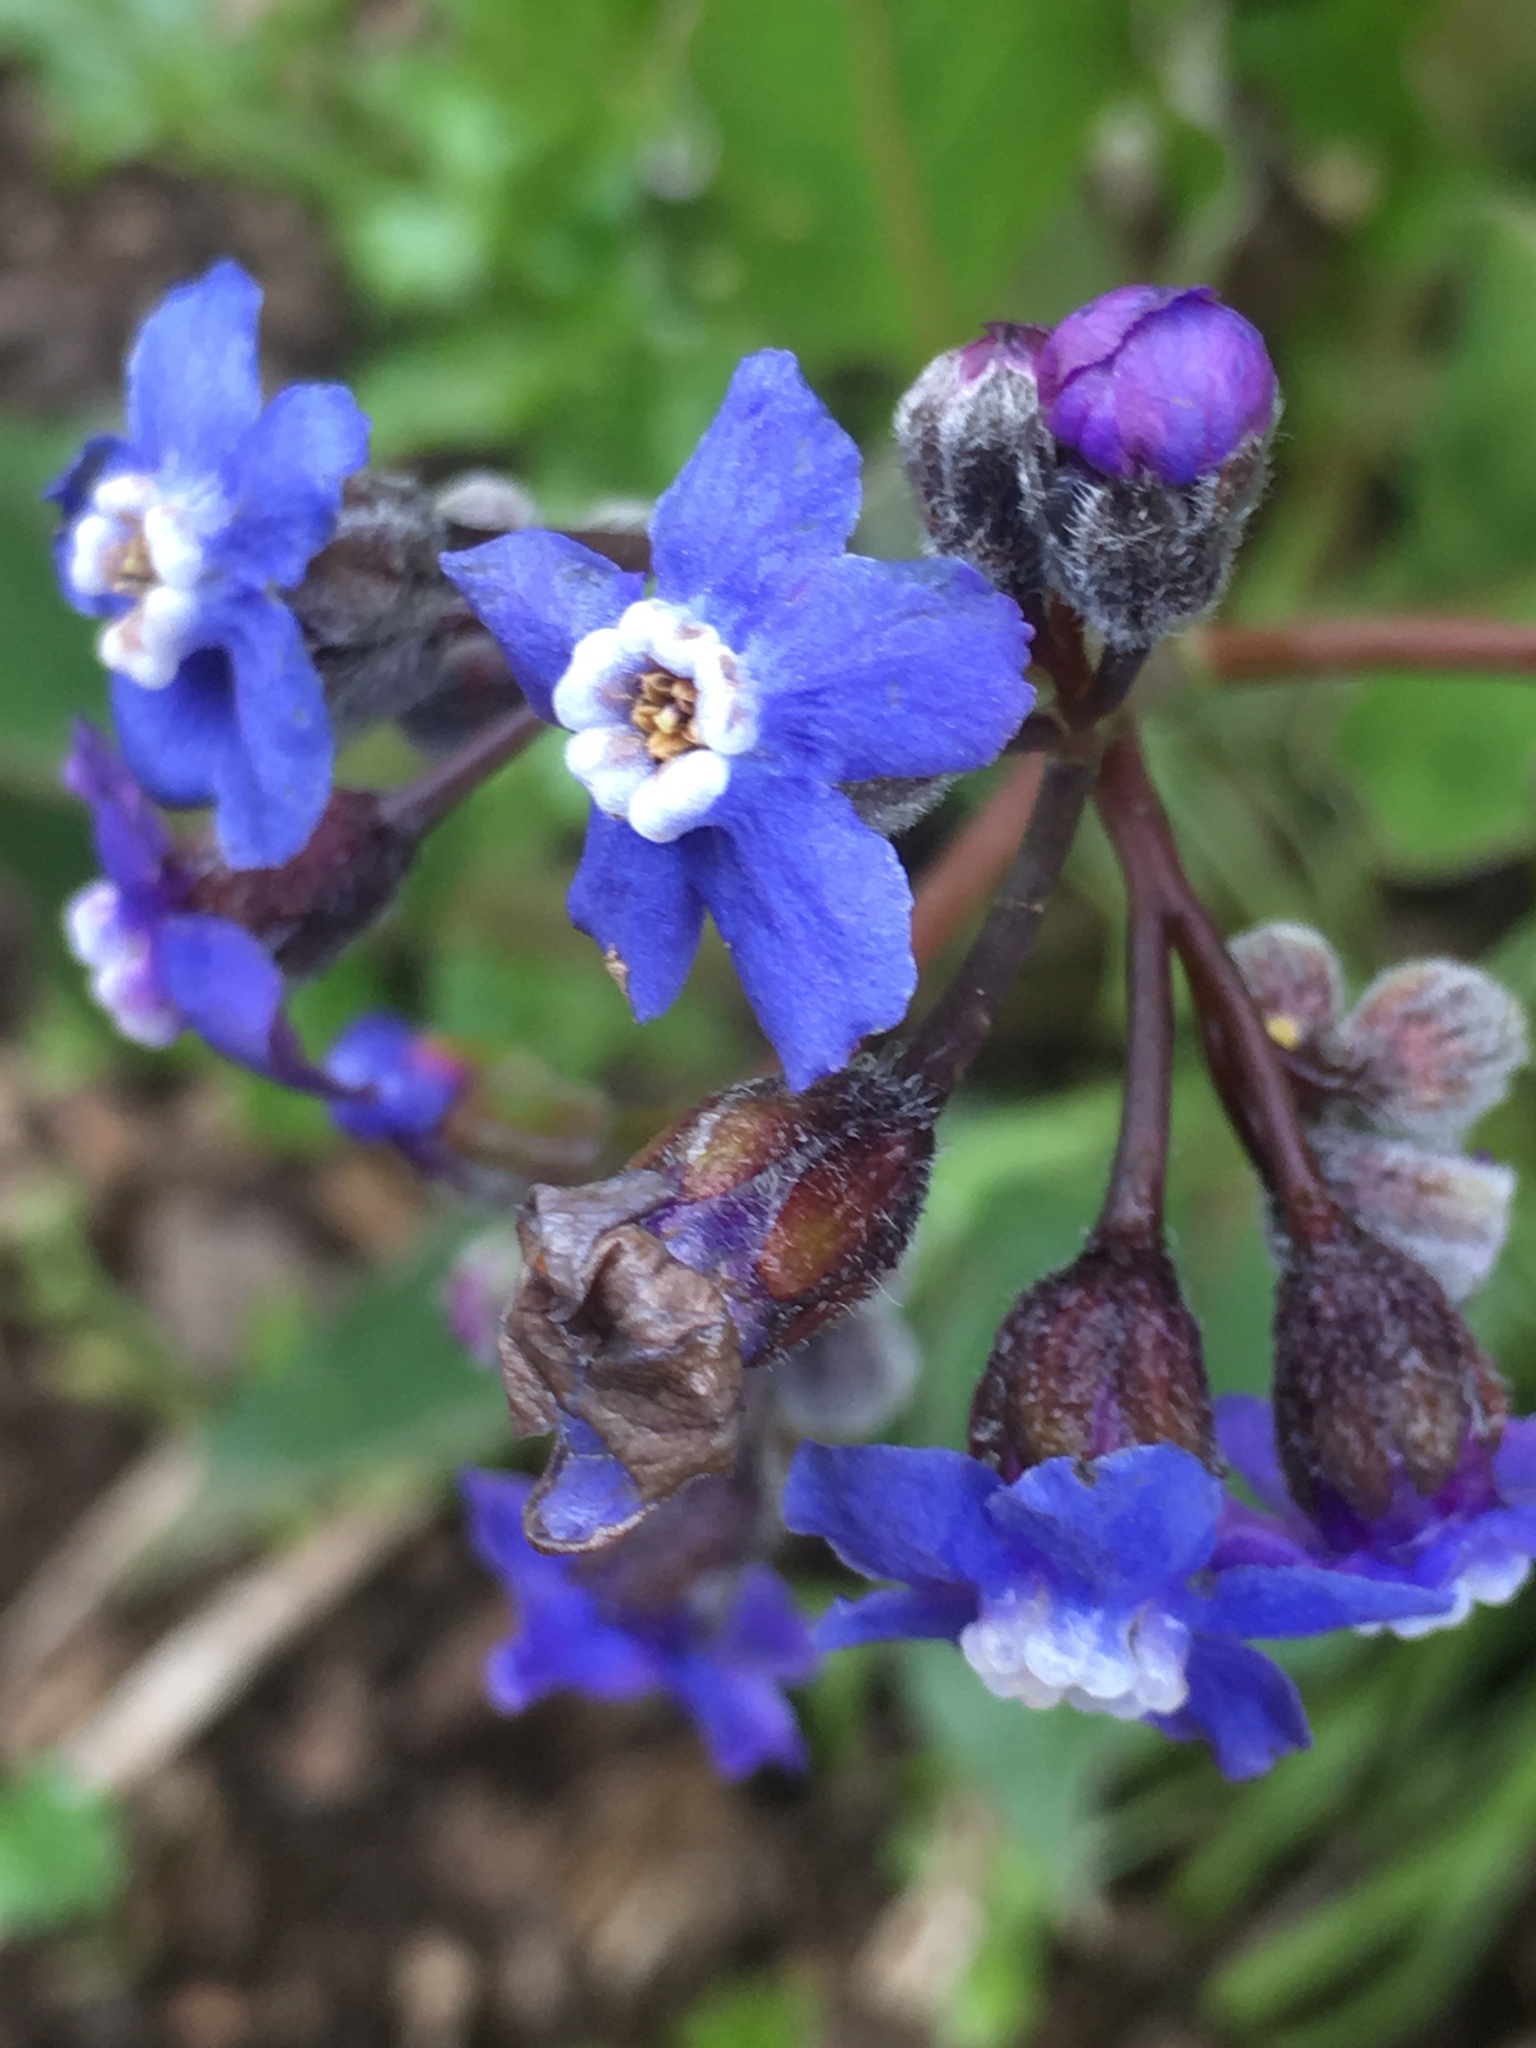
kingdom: Plantae
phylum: Tracheophyta
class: Magnoliopsida
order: Boraginales
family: Boraginaceae
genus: Adelinia
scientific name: Adelinia grande
